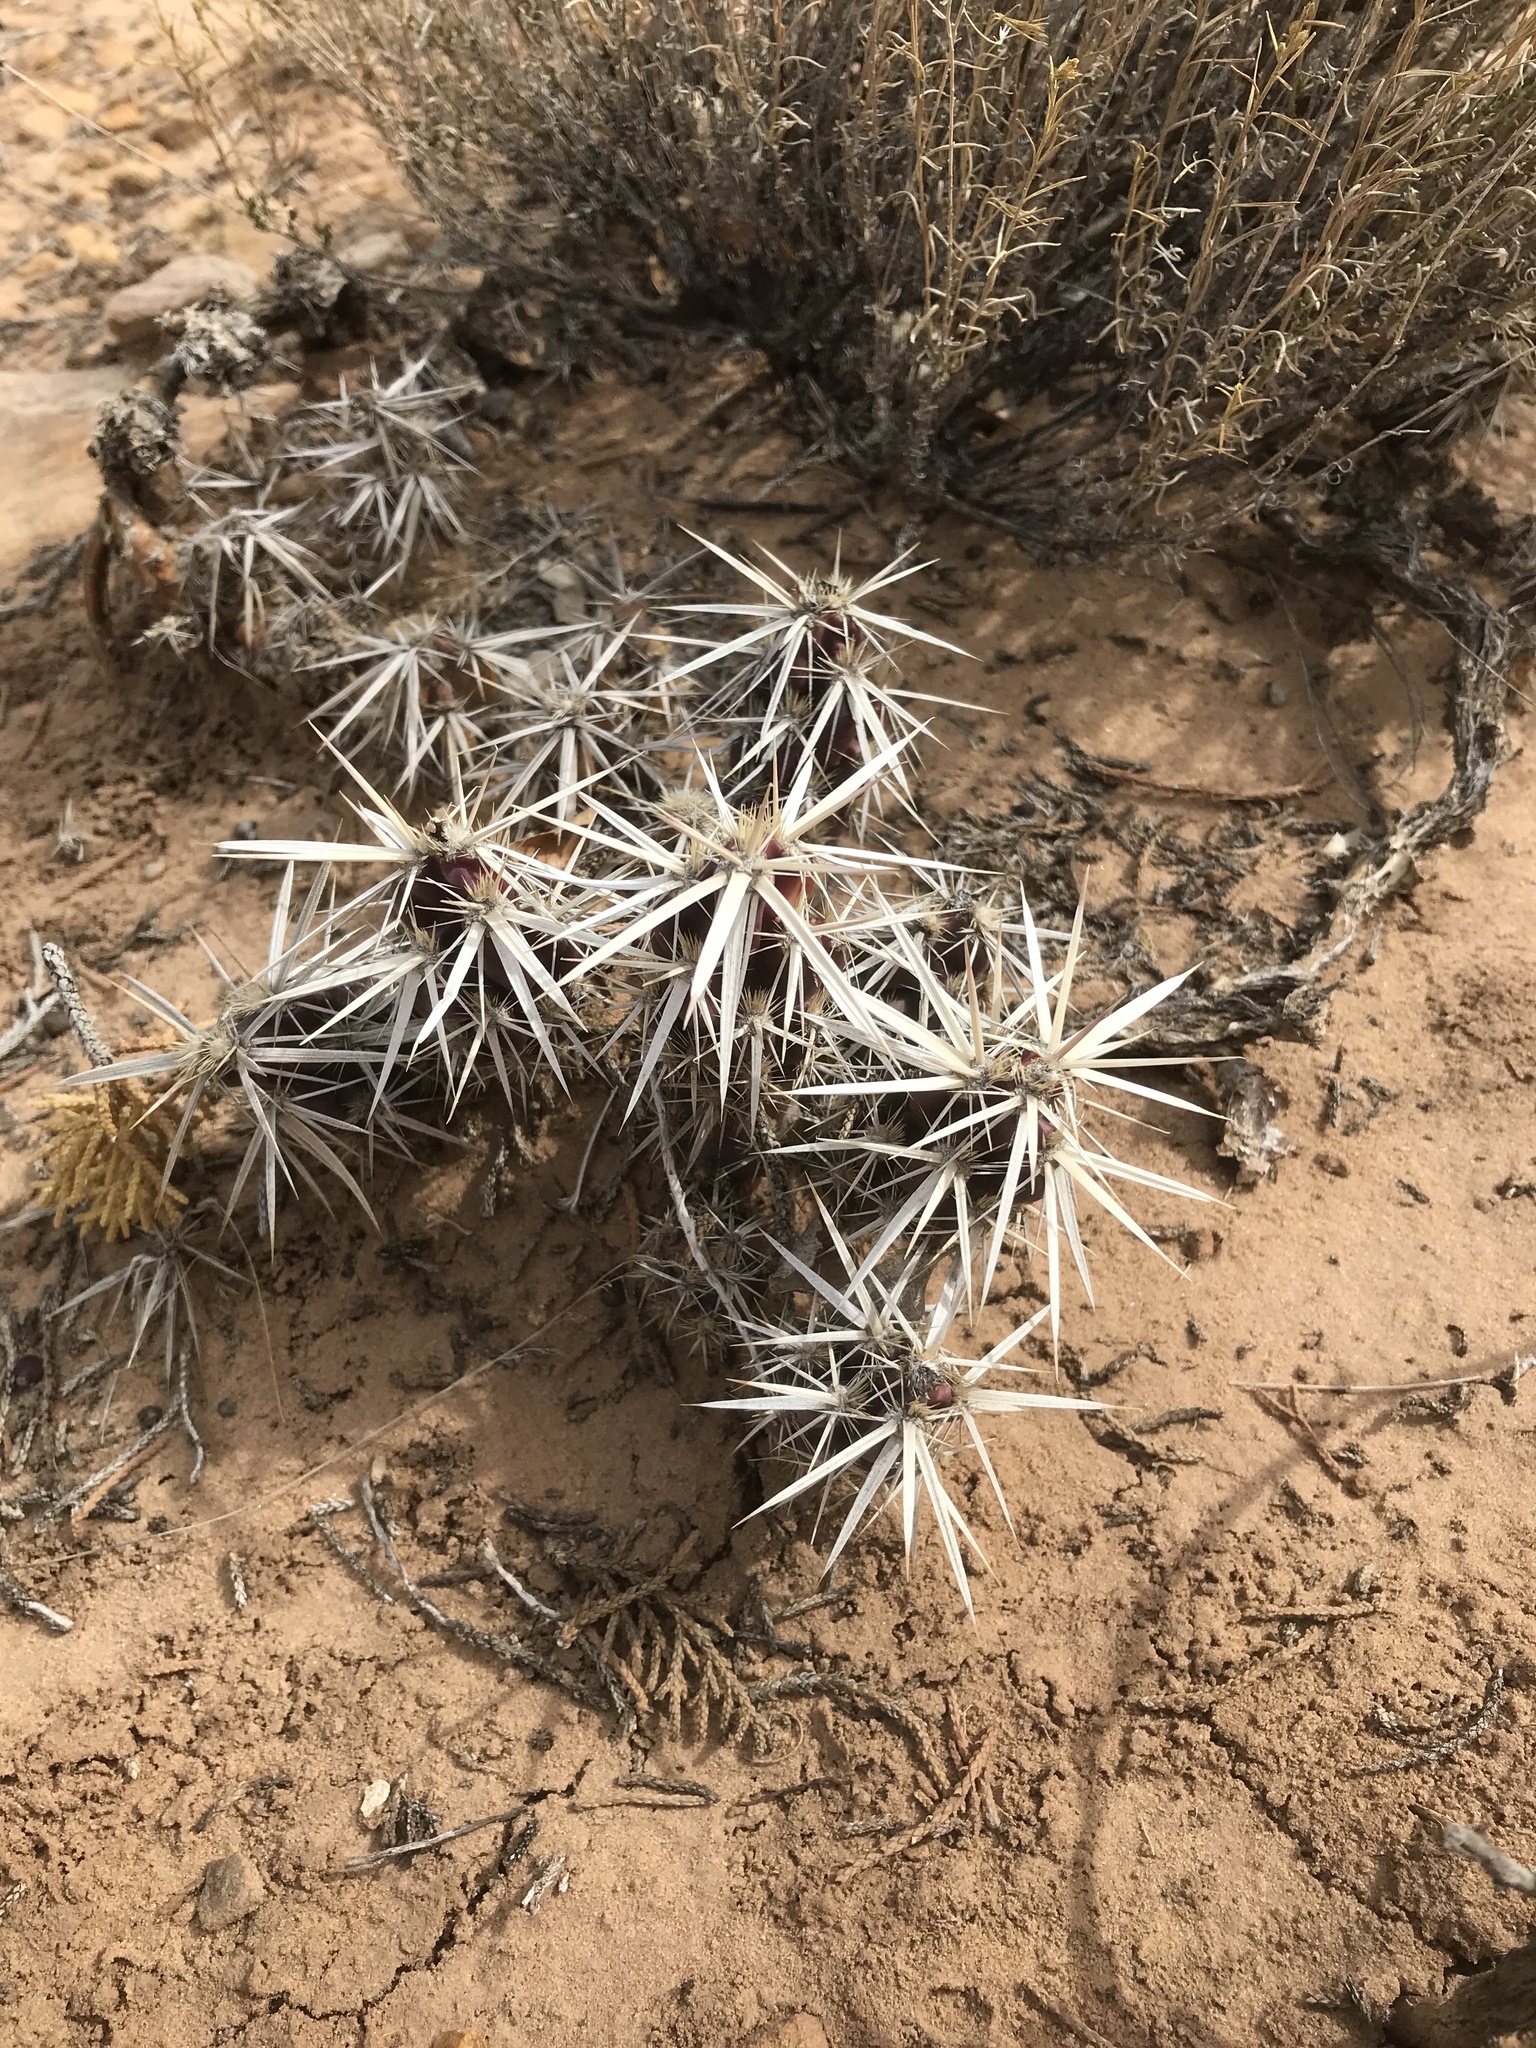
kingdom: Plantae
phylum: Tracheophyta
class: Magnoliopsida
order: Caryophyllales
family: Cactaceae
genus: Grusonia
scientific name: Grusonia clavata
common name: Club cholla
